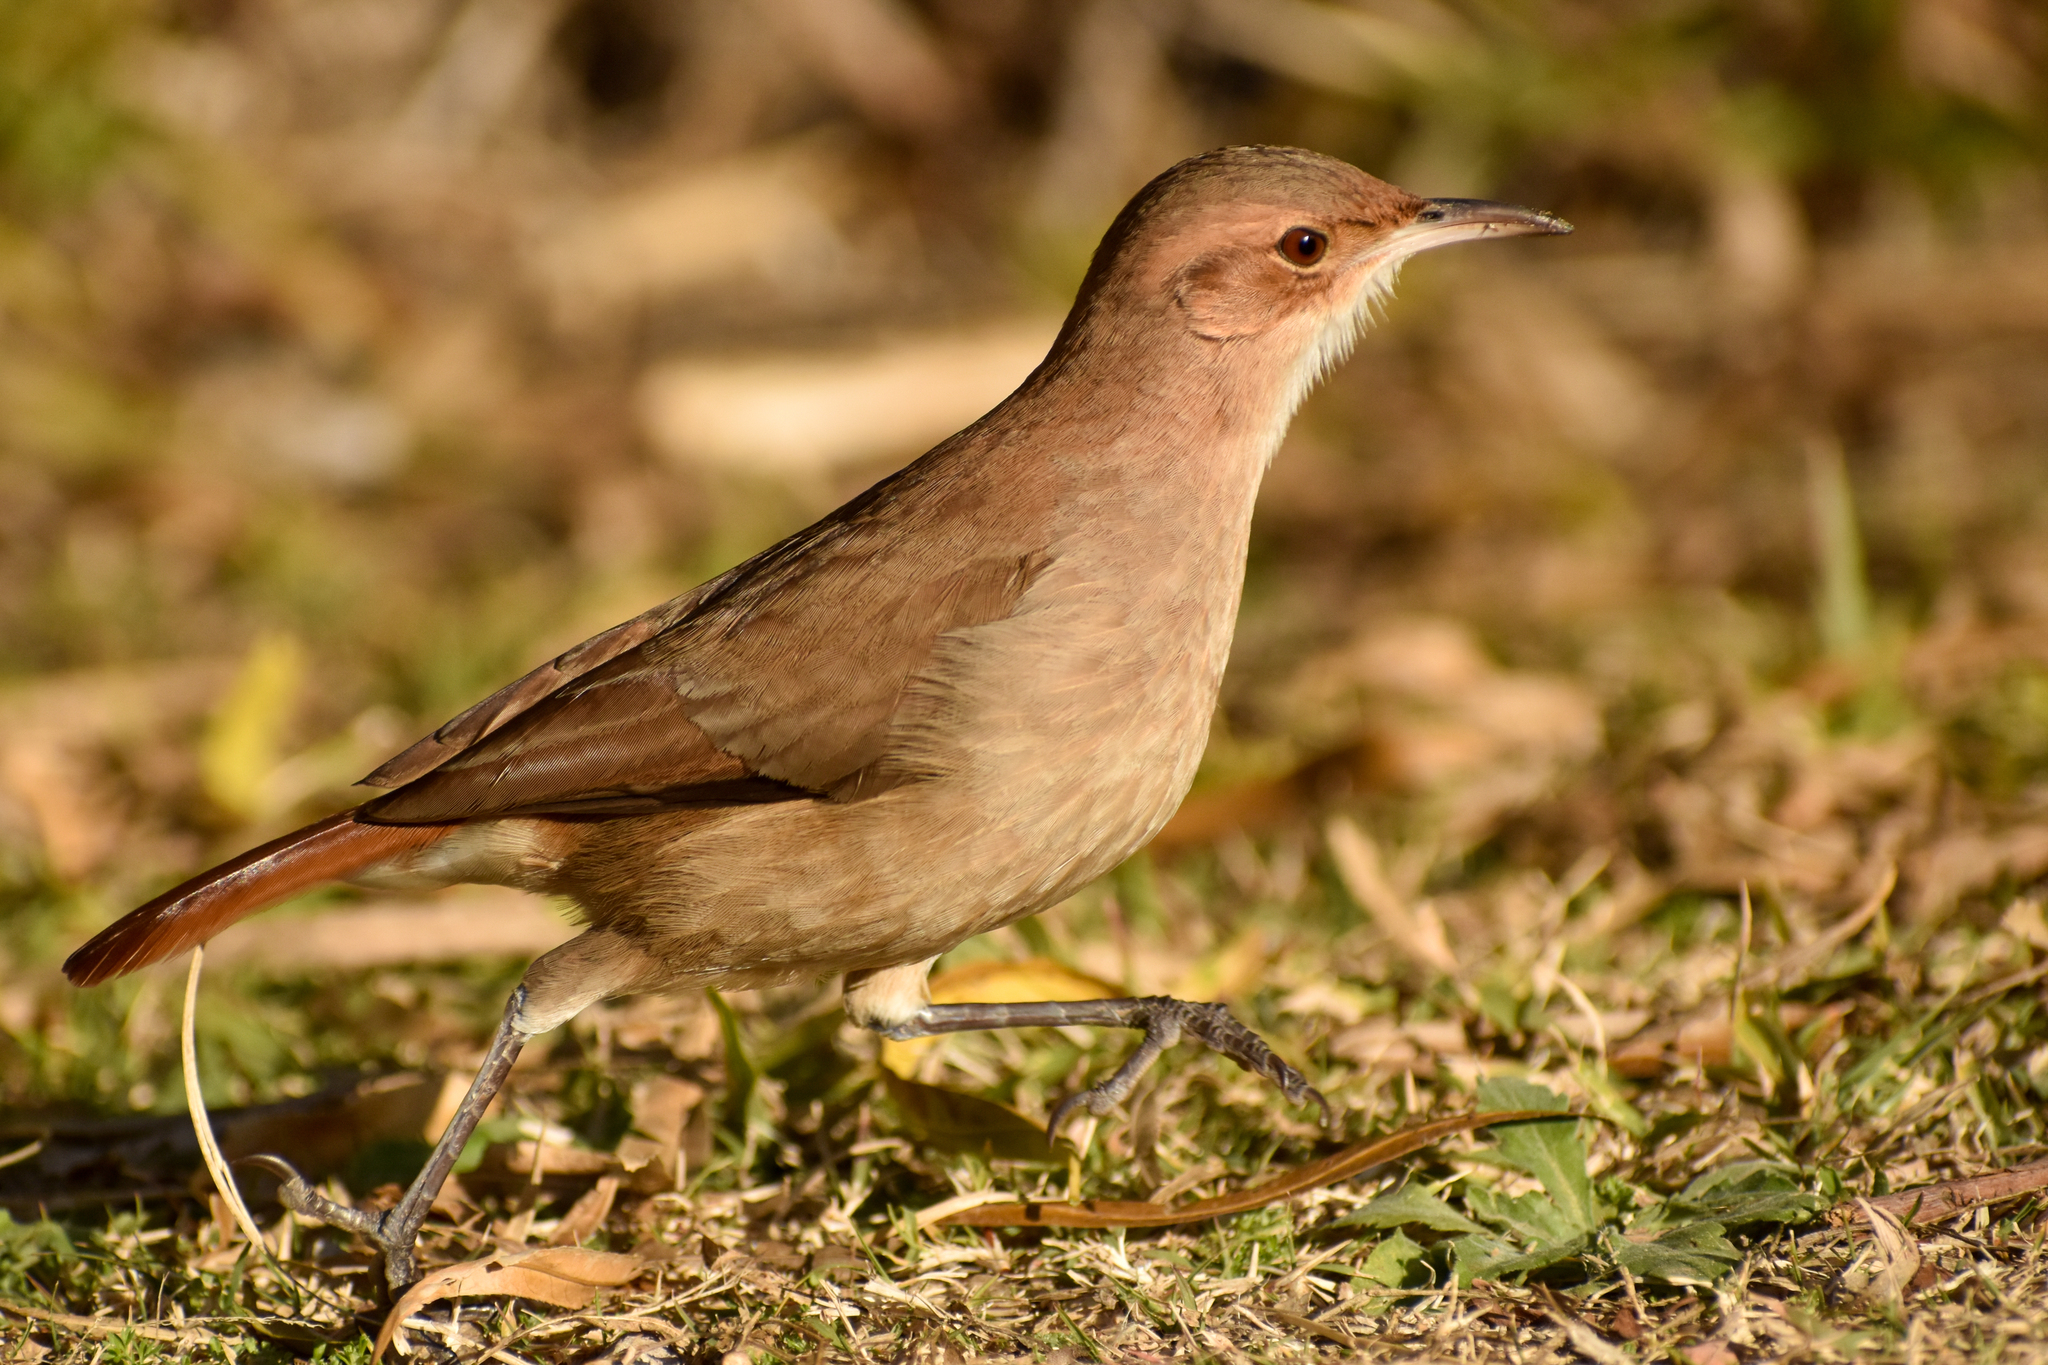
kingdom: Animalia
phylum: Chordata
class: Aves
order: Passeriformes
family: Furnariidae
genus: Furnarius
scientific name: Furnarius rufus
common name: Rufous hornero
